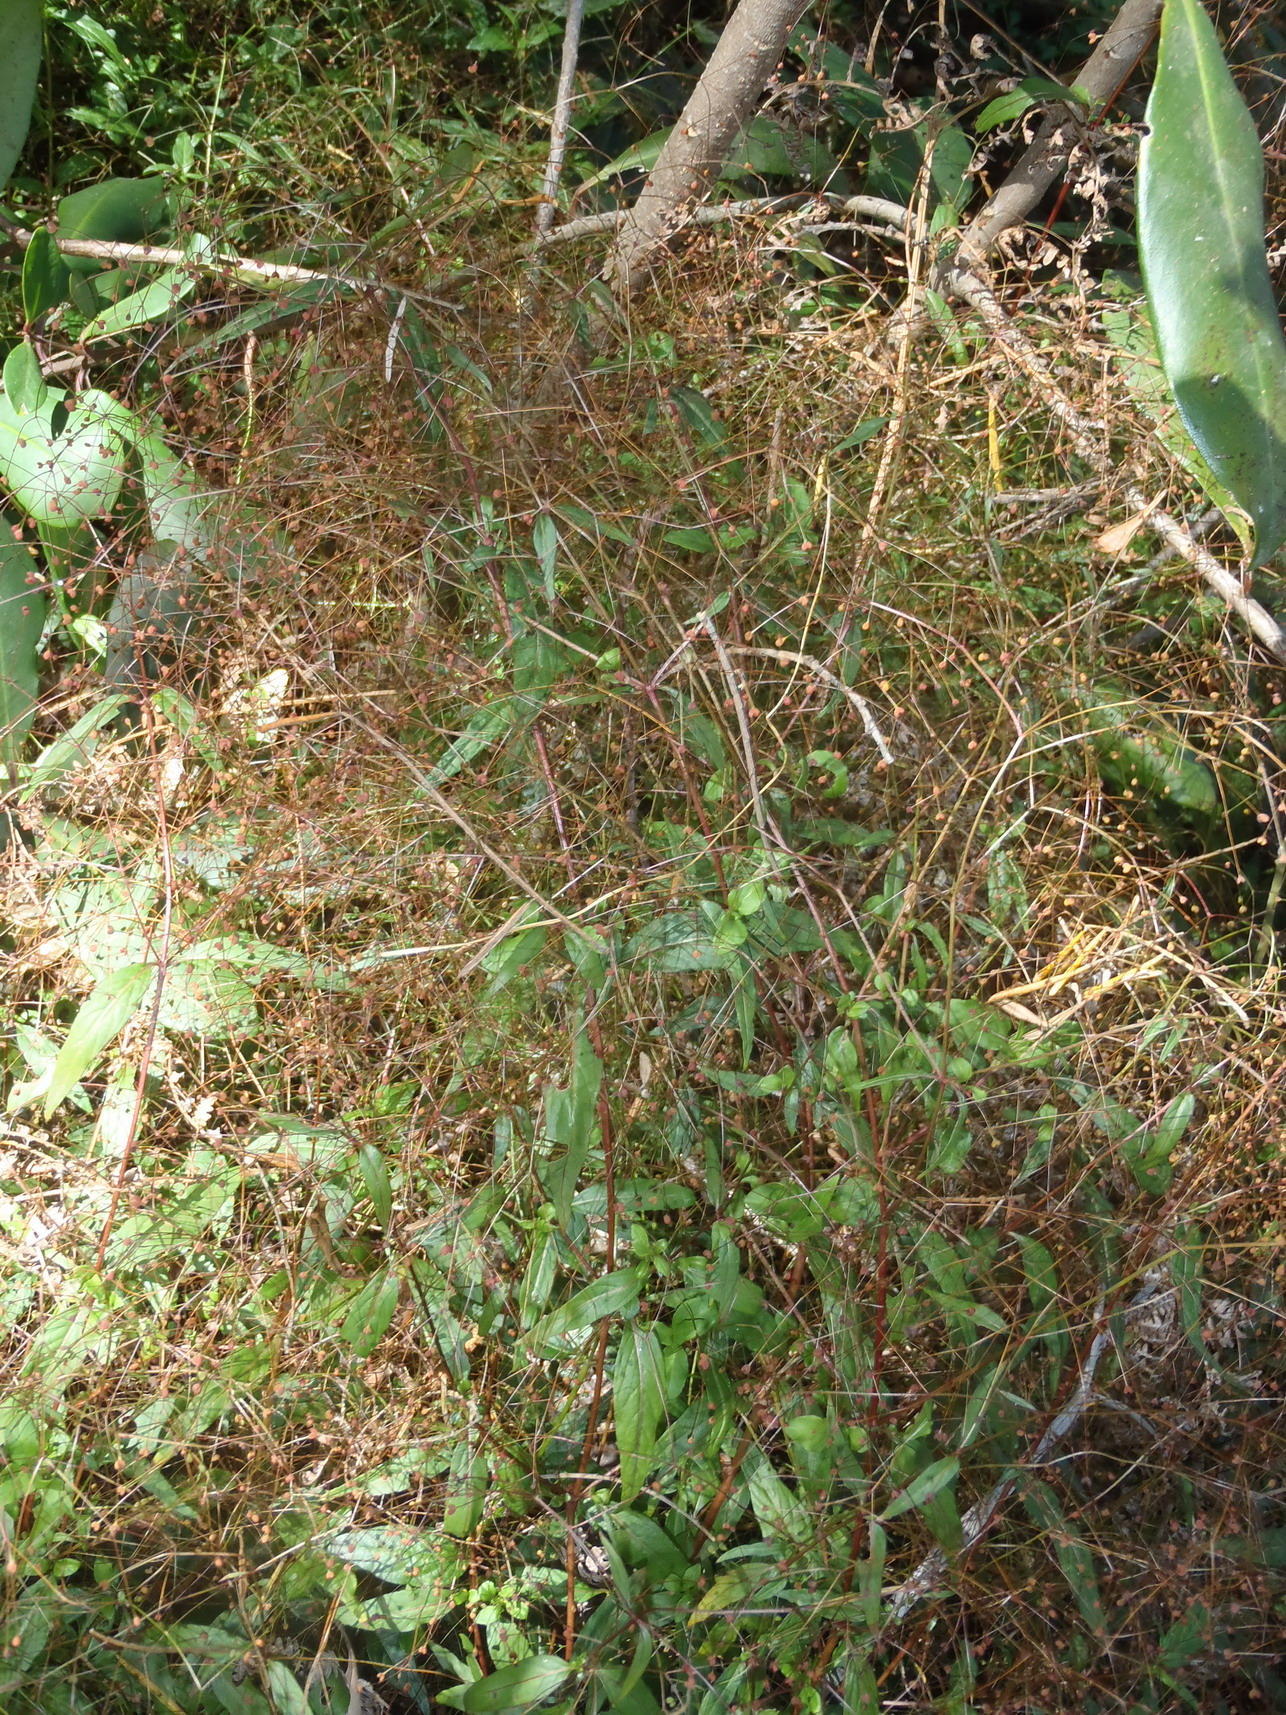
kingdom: Plantae
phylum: Tracheophyta
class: Magnoliopsida
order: Gentianales
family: Rubiaceae
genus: Galopina
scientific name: Galopina circaeoides
